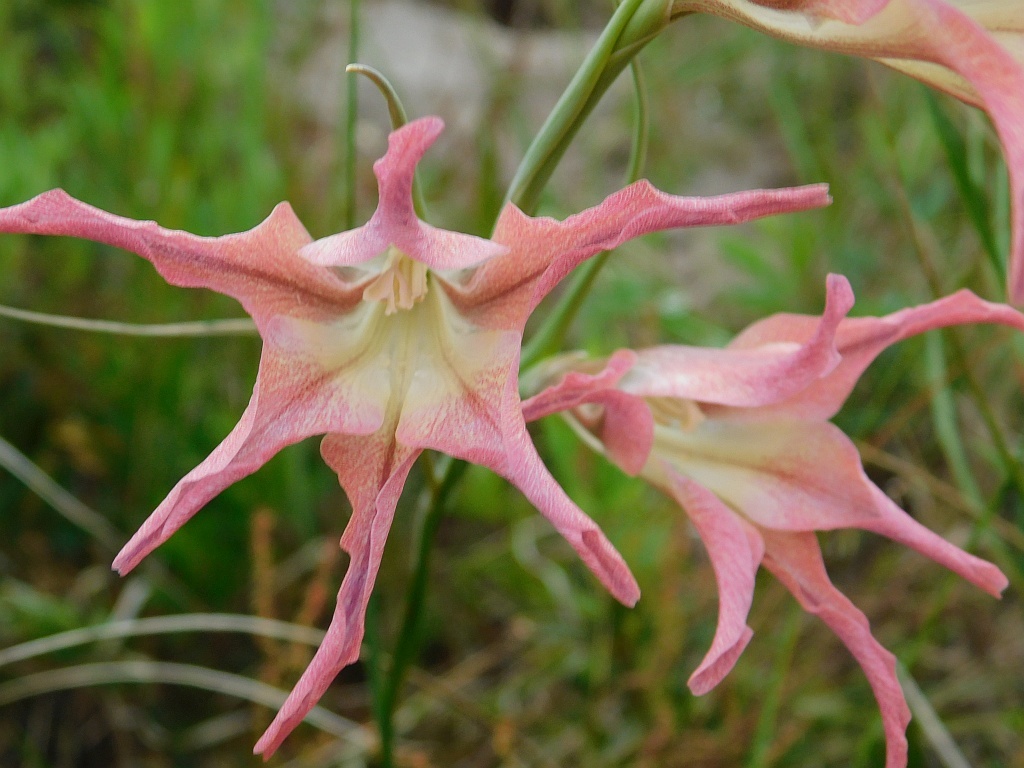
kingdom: Plantae
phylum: Tracheophyta
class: Liliopsida
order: Asparagales
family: Iridaceae
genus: Gladiolus
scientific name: Gladiolus liliaceus
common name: Large brown afrikaner
